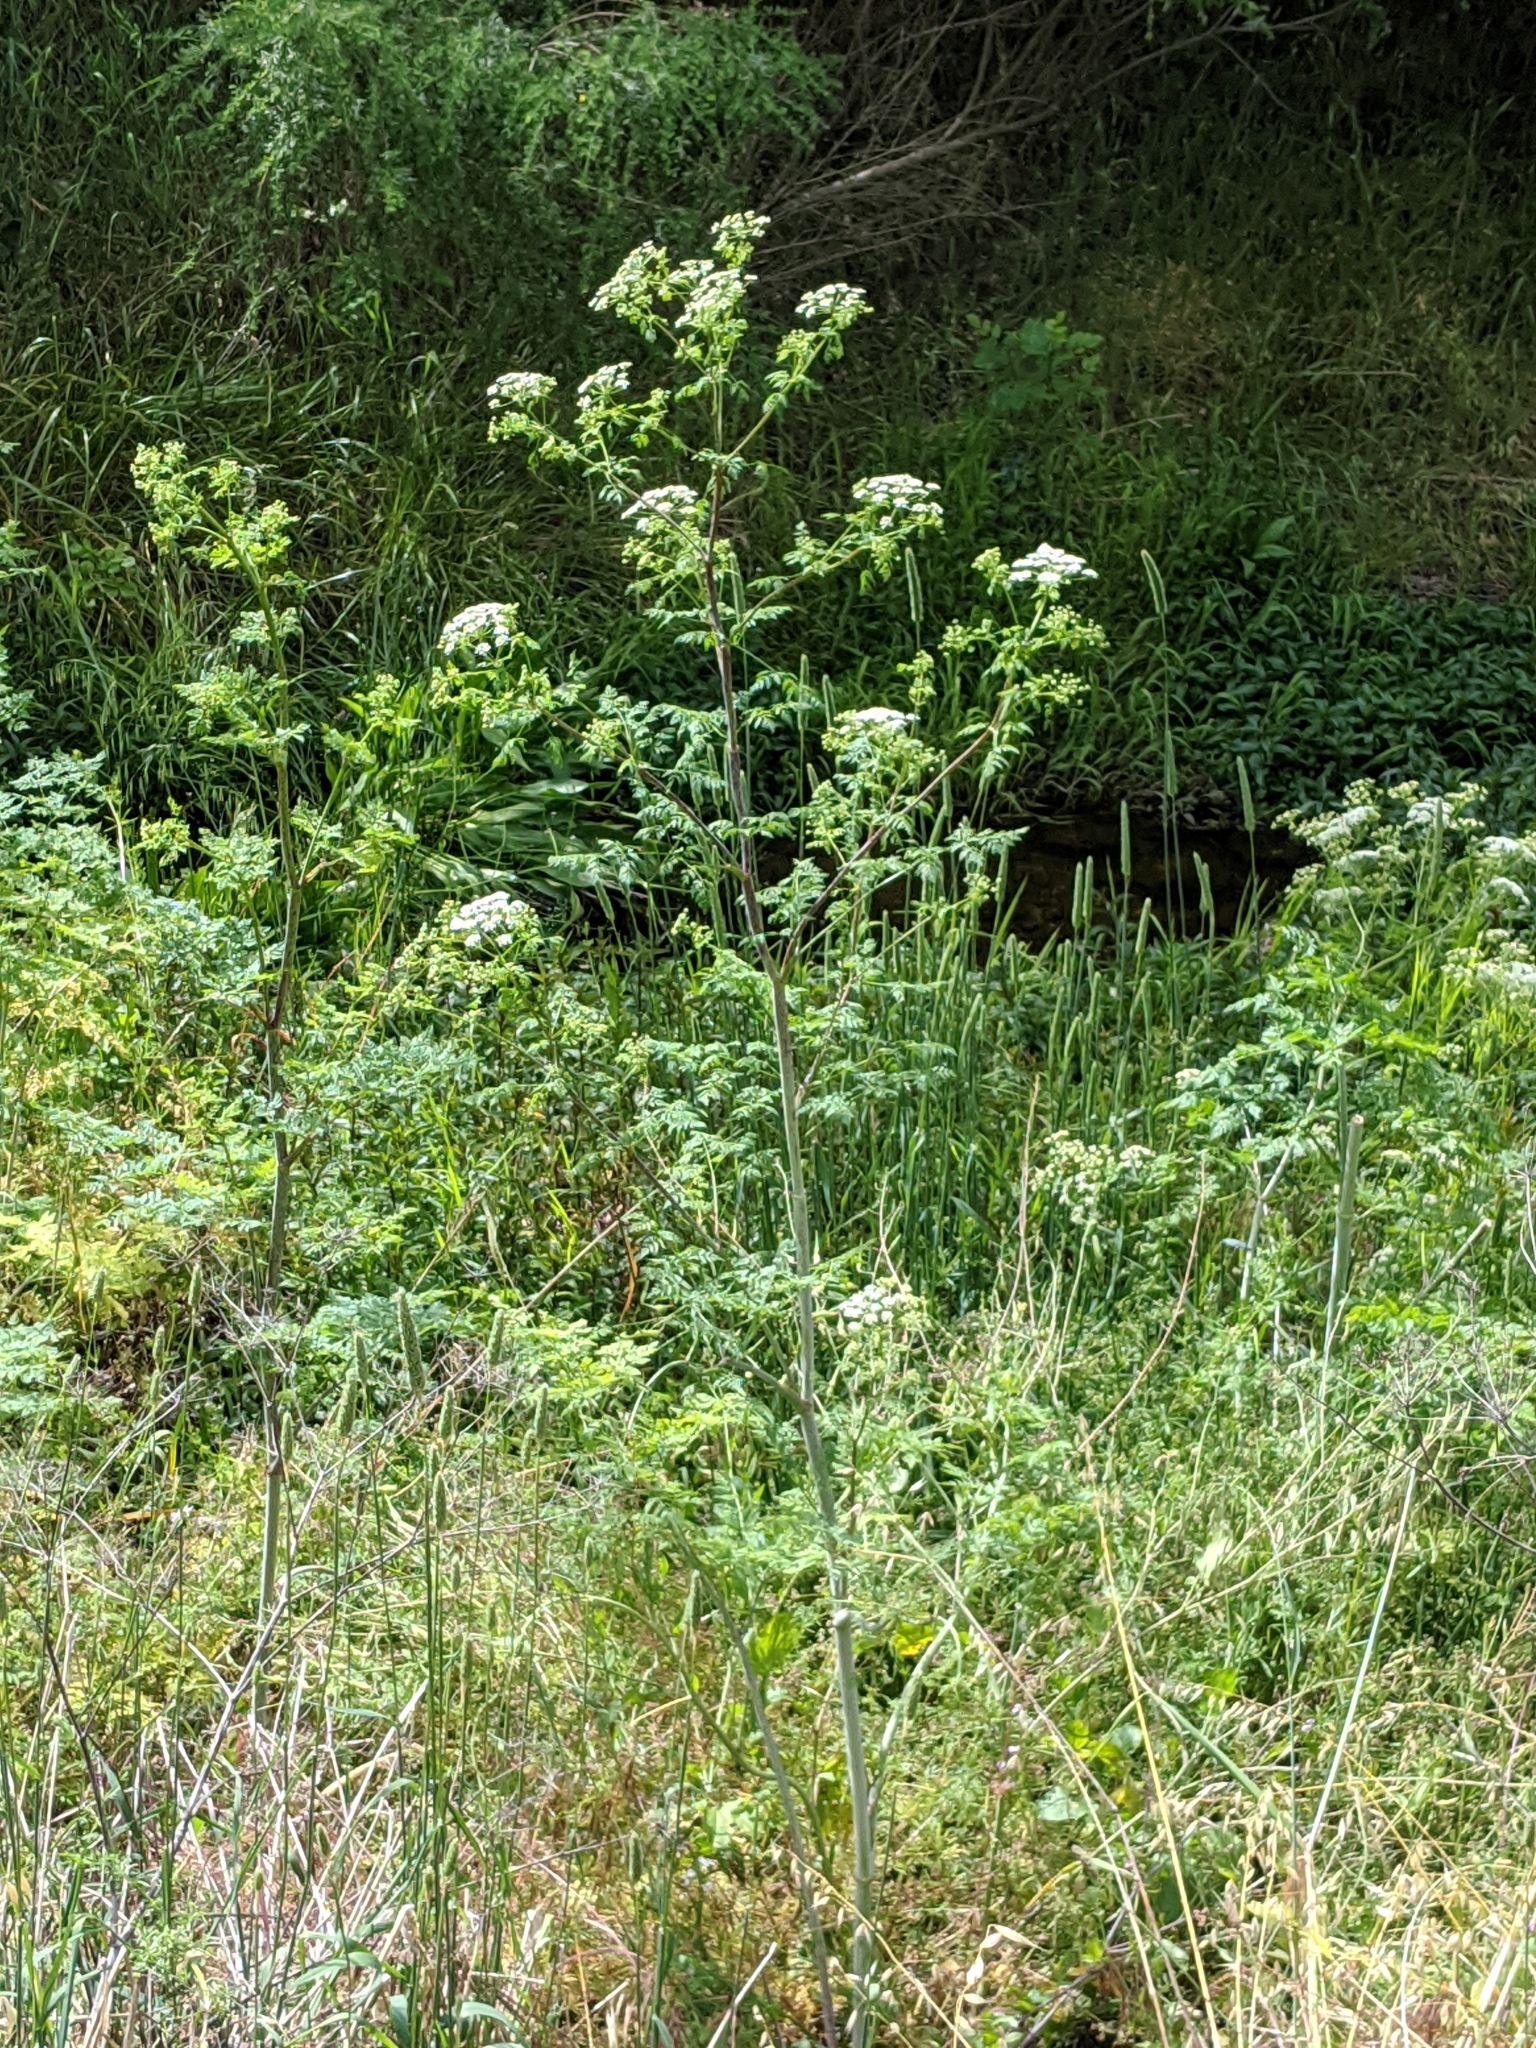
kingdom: Plantae
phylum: Tracheophyta
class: Magnoliopsida
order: Apiales
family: Apiaceae
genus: Conium
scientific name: Conium maculatum
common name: Hemlock
